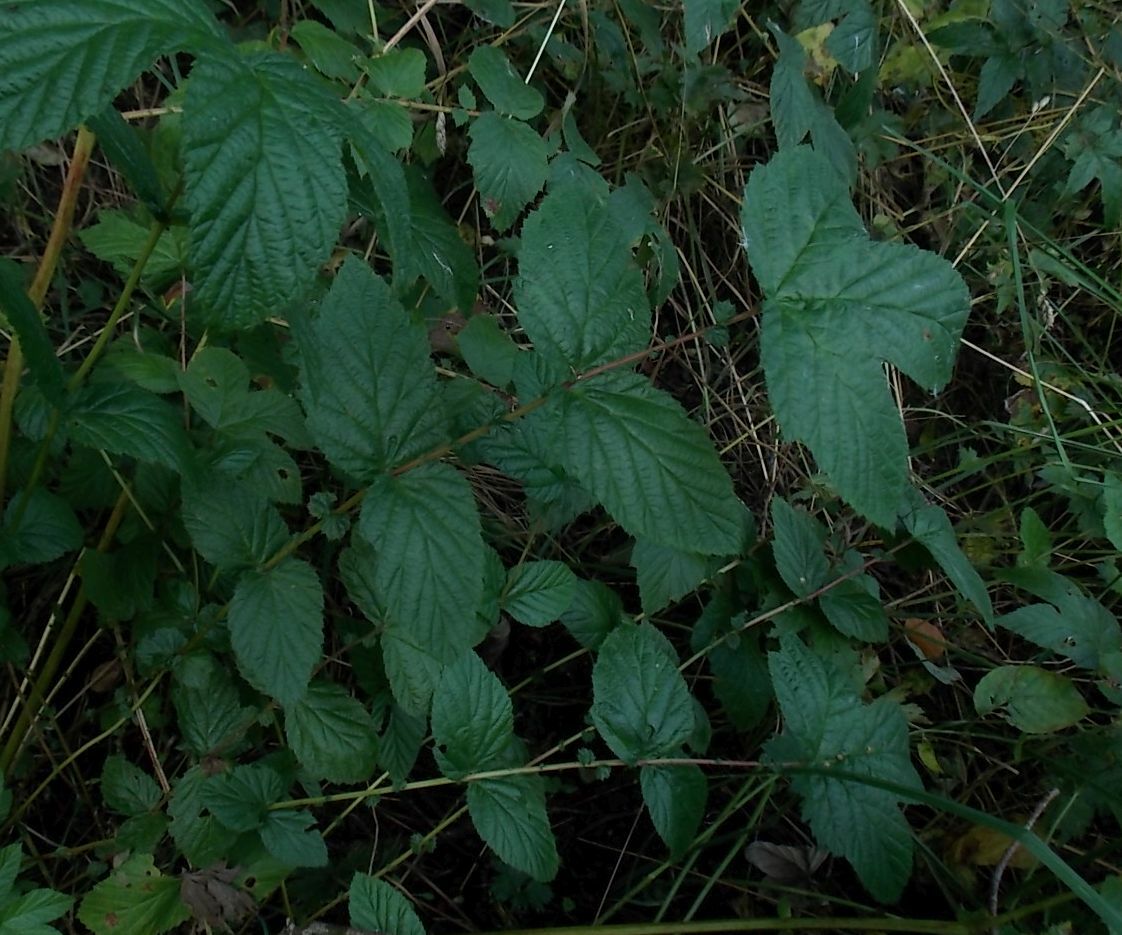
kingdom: Plantae
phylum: Tracheophyta
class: Magnoliopsida
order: Rosales
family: Rosaceae
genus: Filipendula
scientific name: Filipendula ulmaria
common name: Meadowsweet
